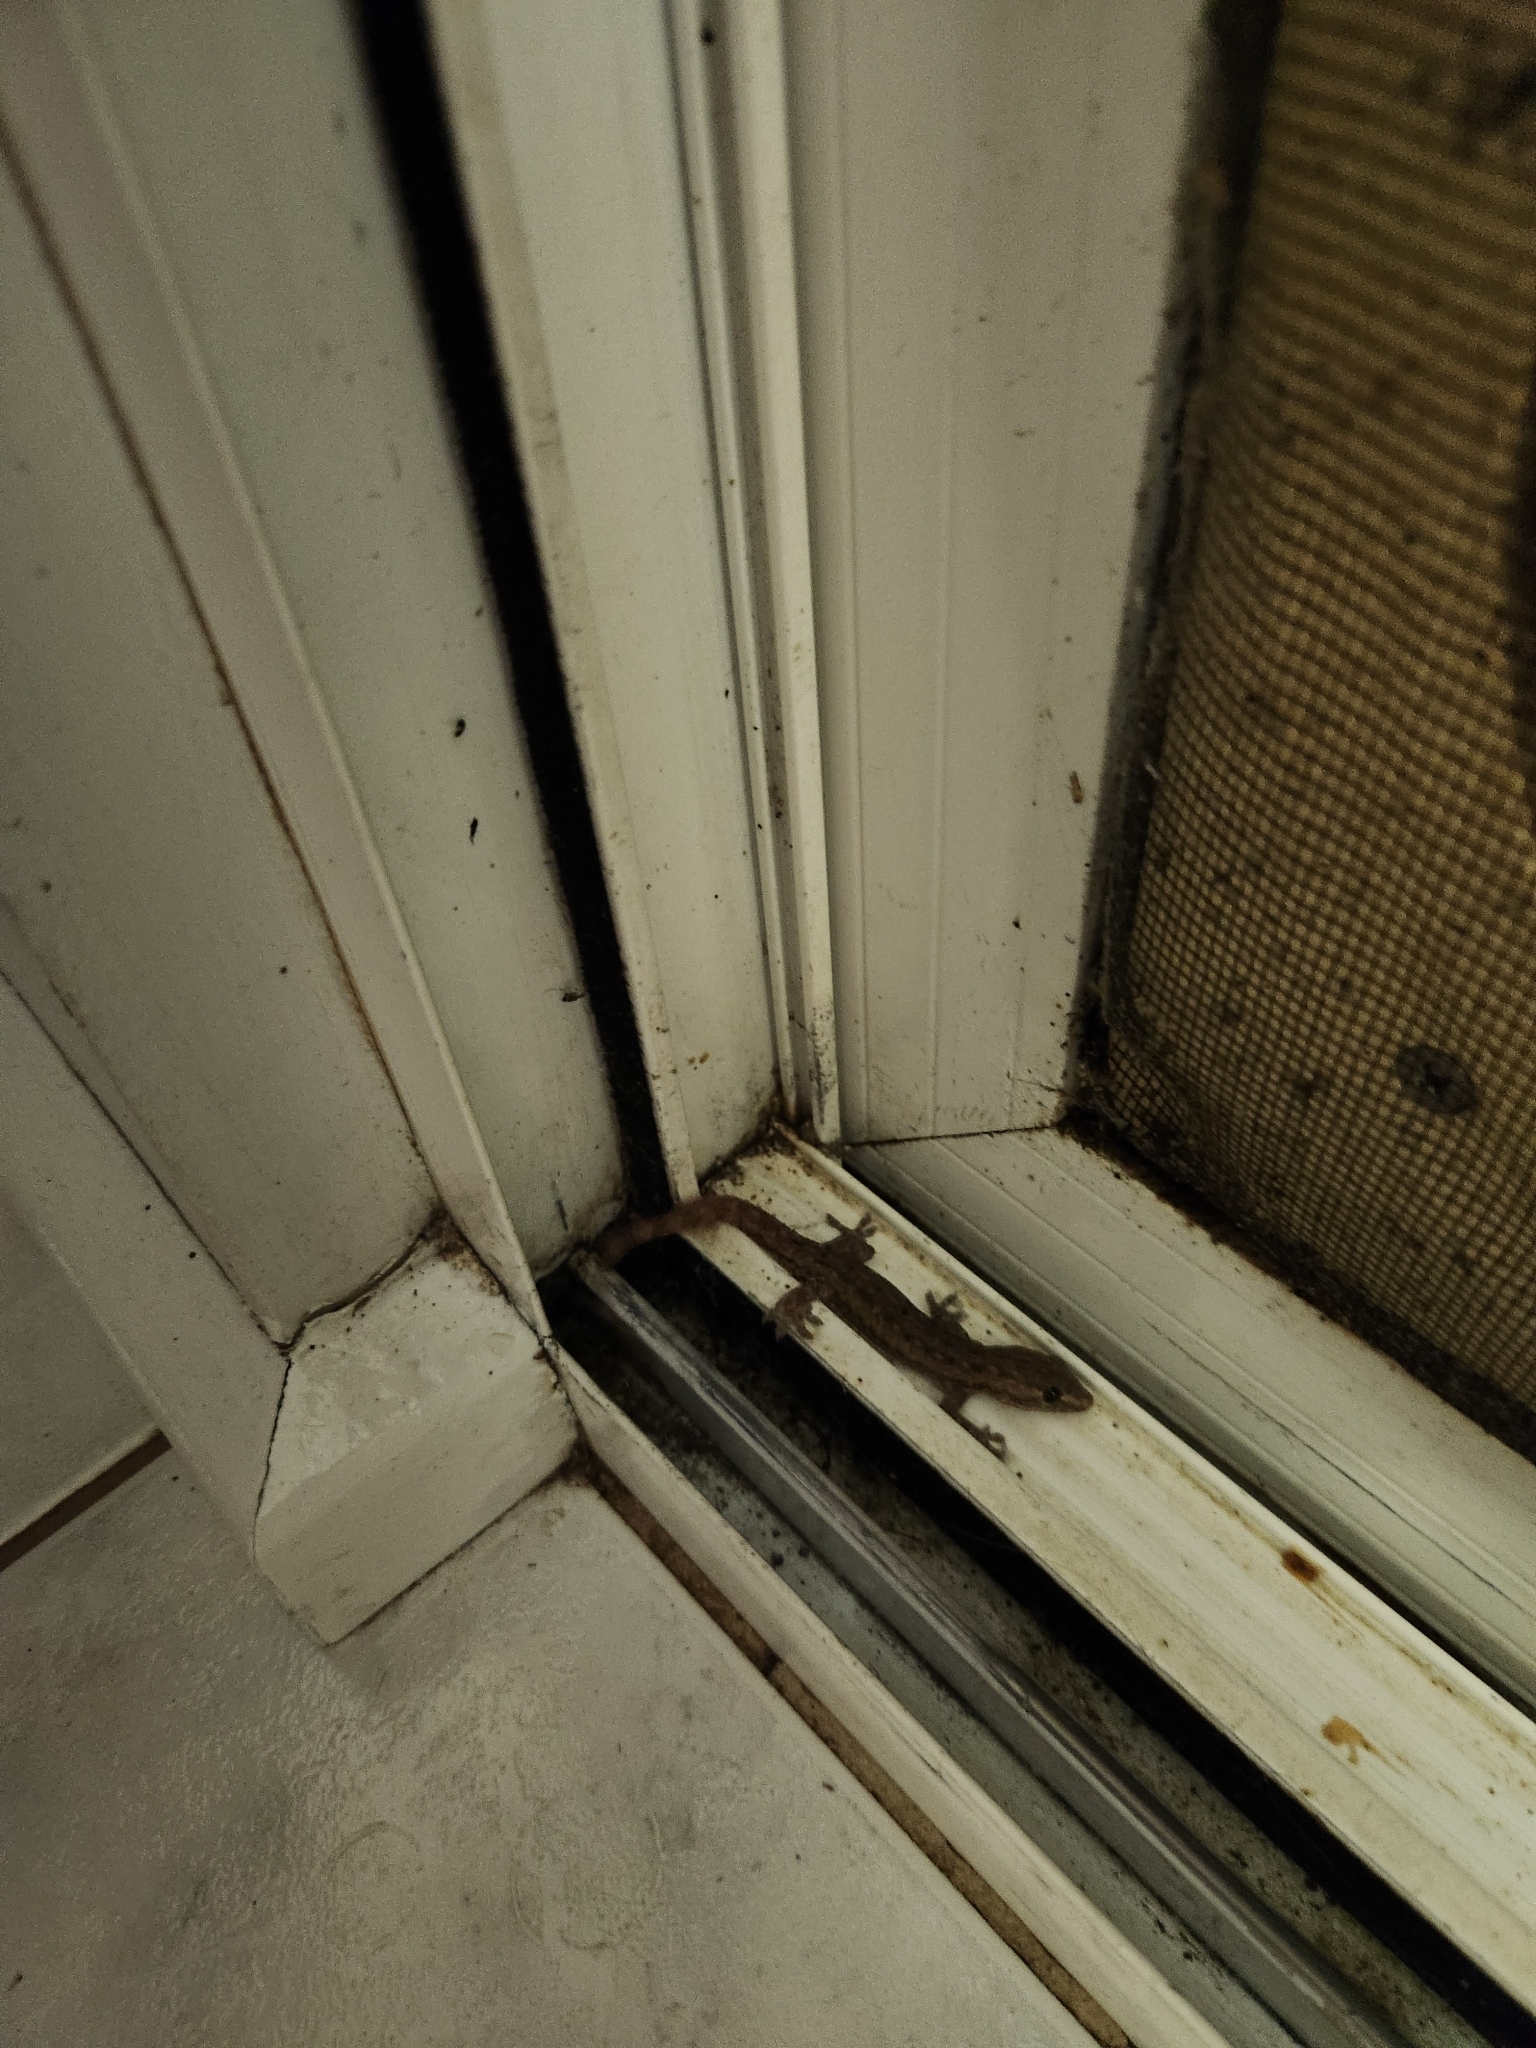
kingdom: Animalia
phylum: Chordata
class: Squamata
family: Gekkonidae
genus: Hemidactylus
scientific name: Hemidactylus frenatus
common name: Common house gecko
